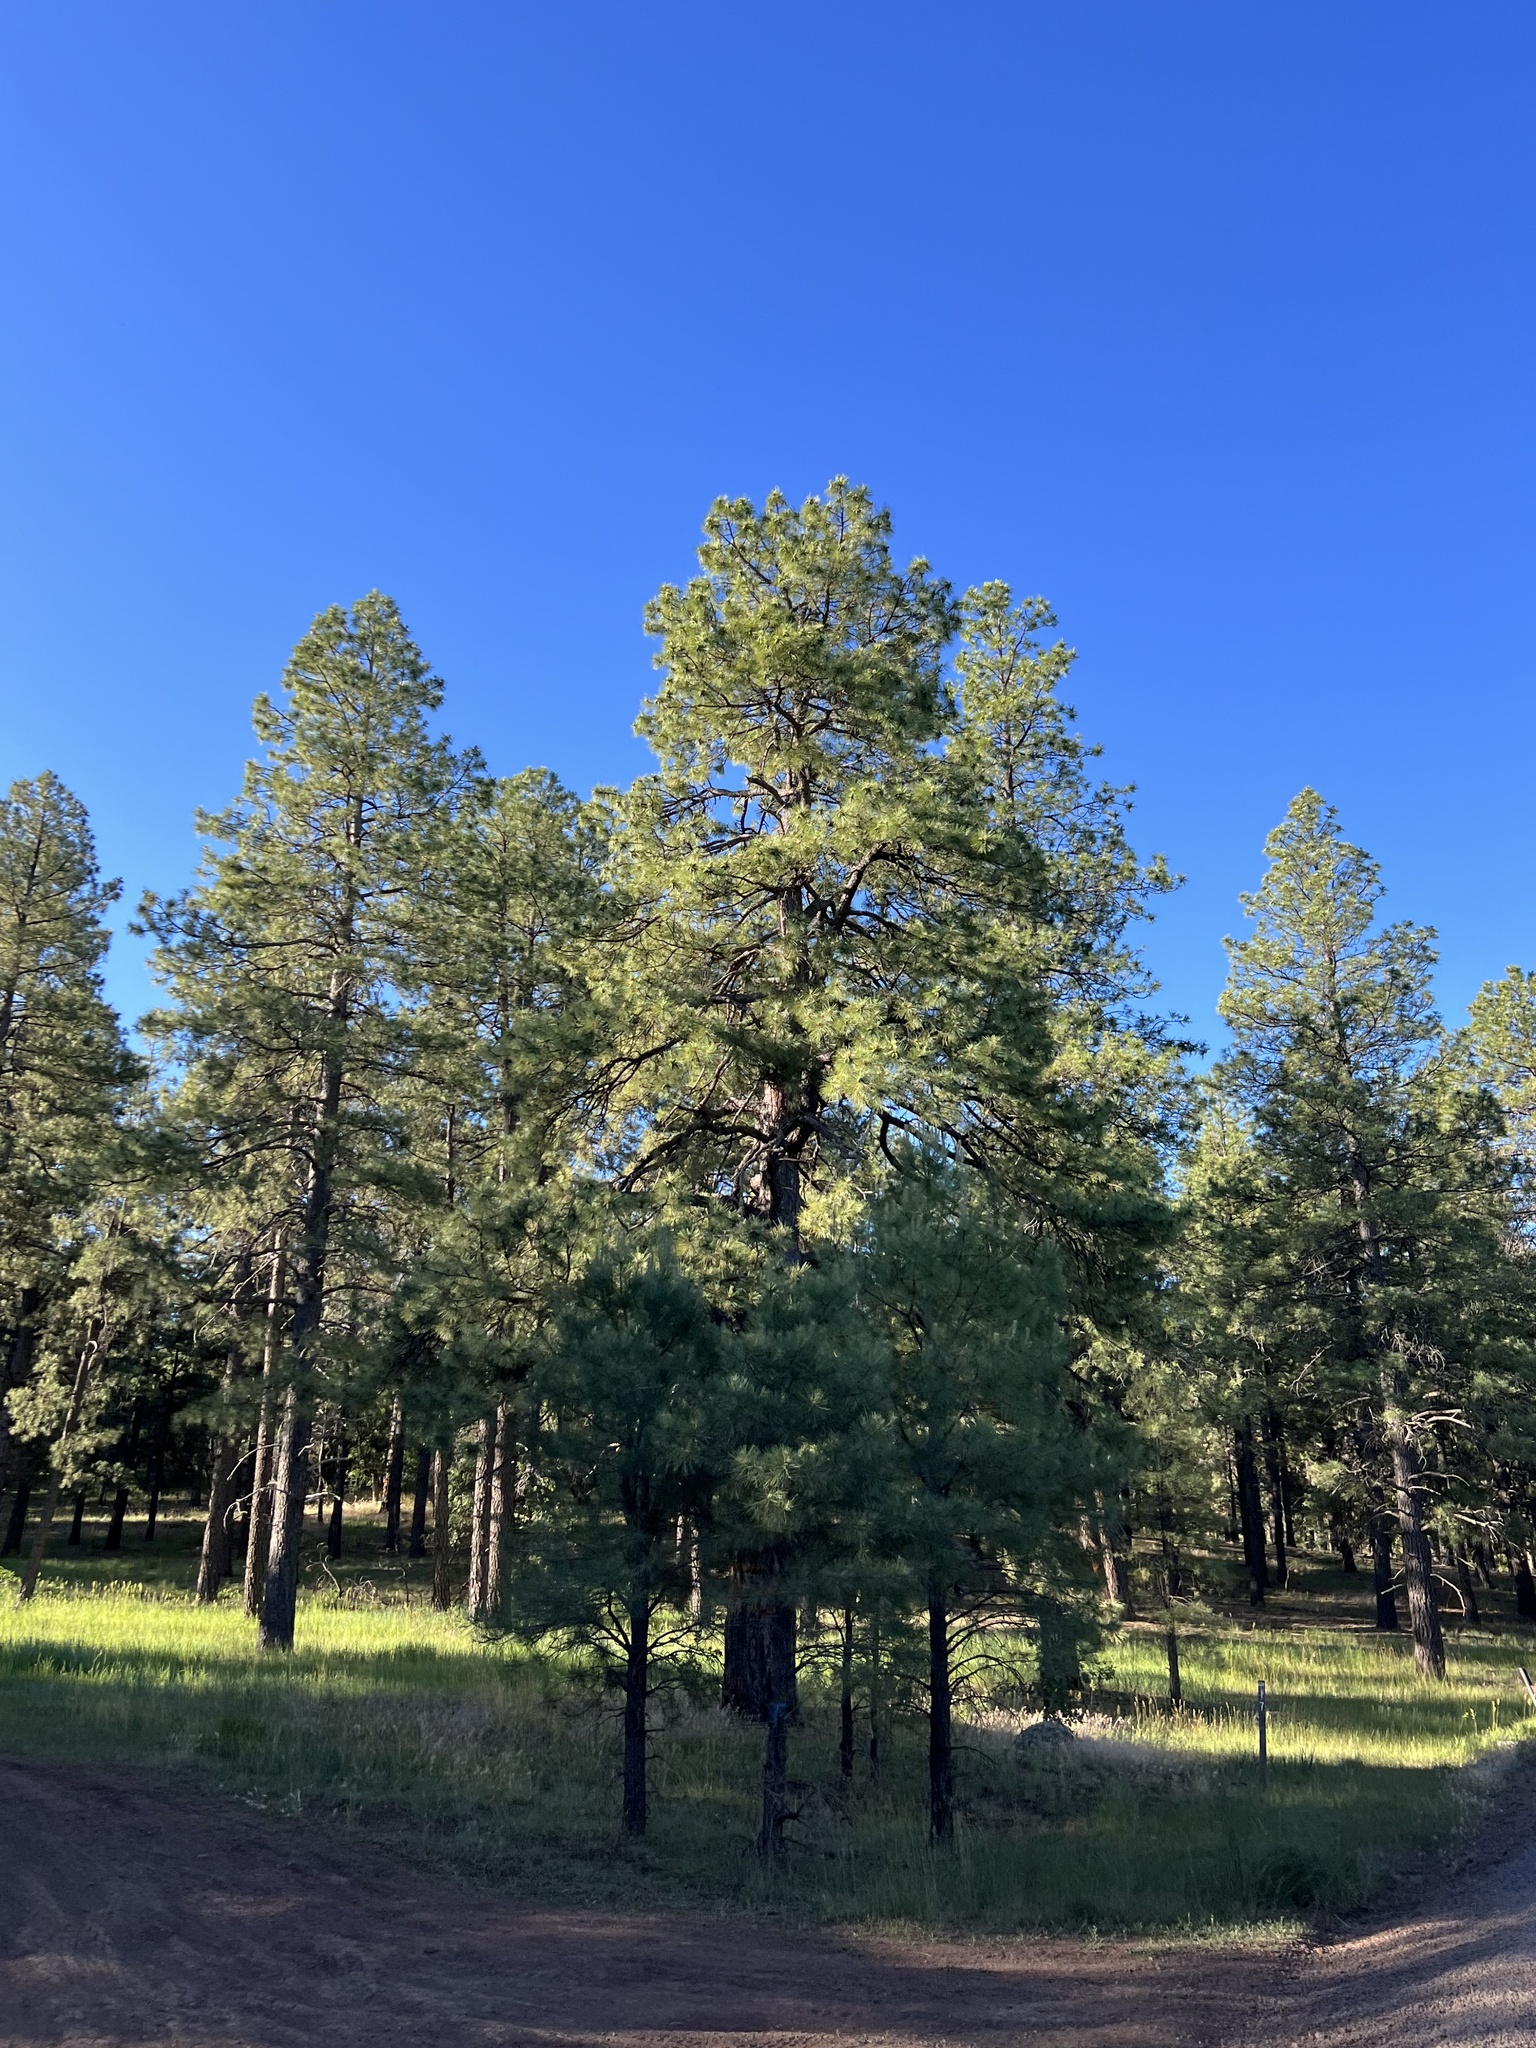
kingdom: Plantae
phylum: Tracheophyta
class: Pinopsida
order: Pinales
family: Pinaceae
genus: Pinus
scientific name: Pinus ponderosa
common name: Western yellow-pine
